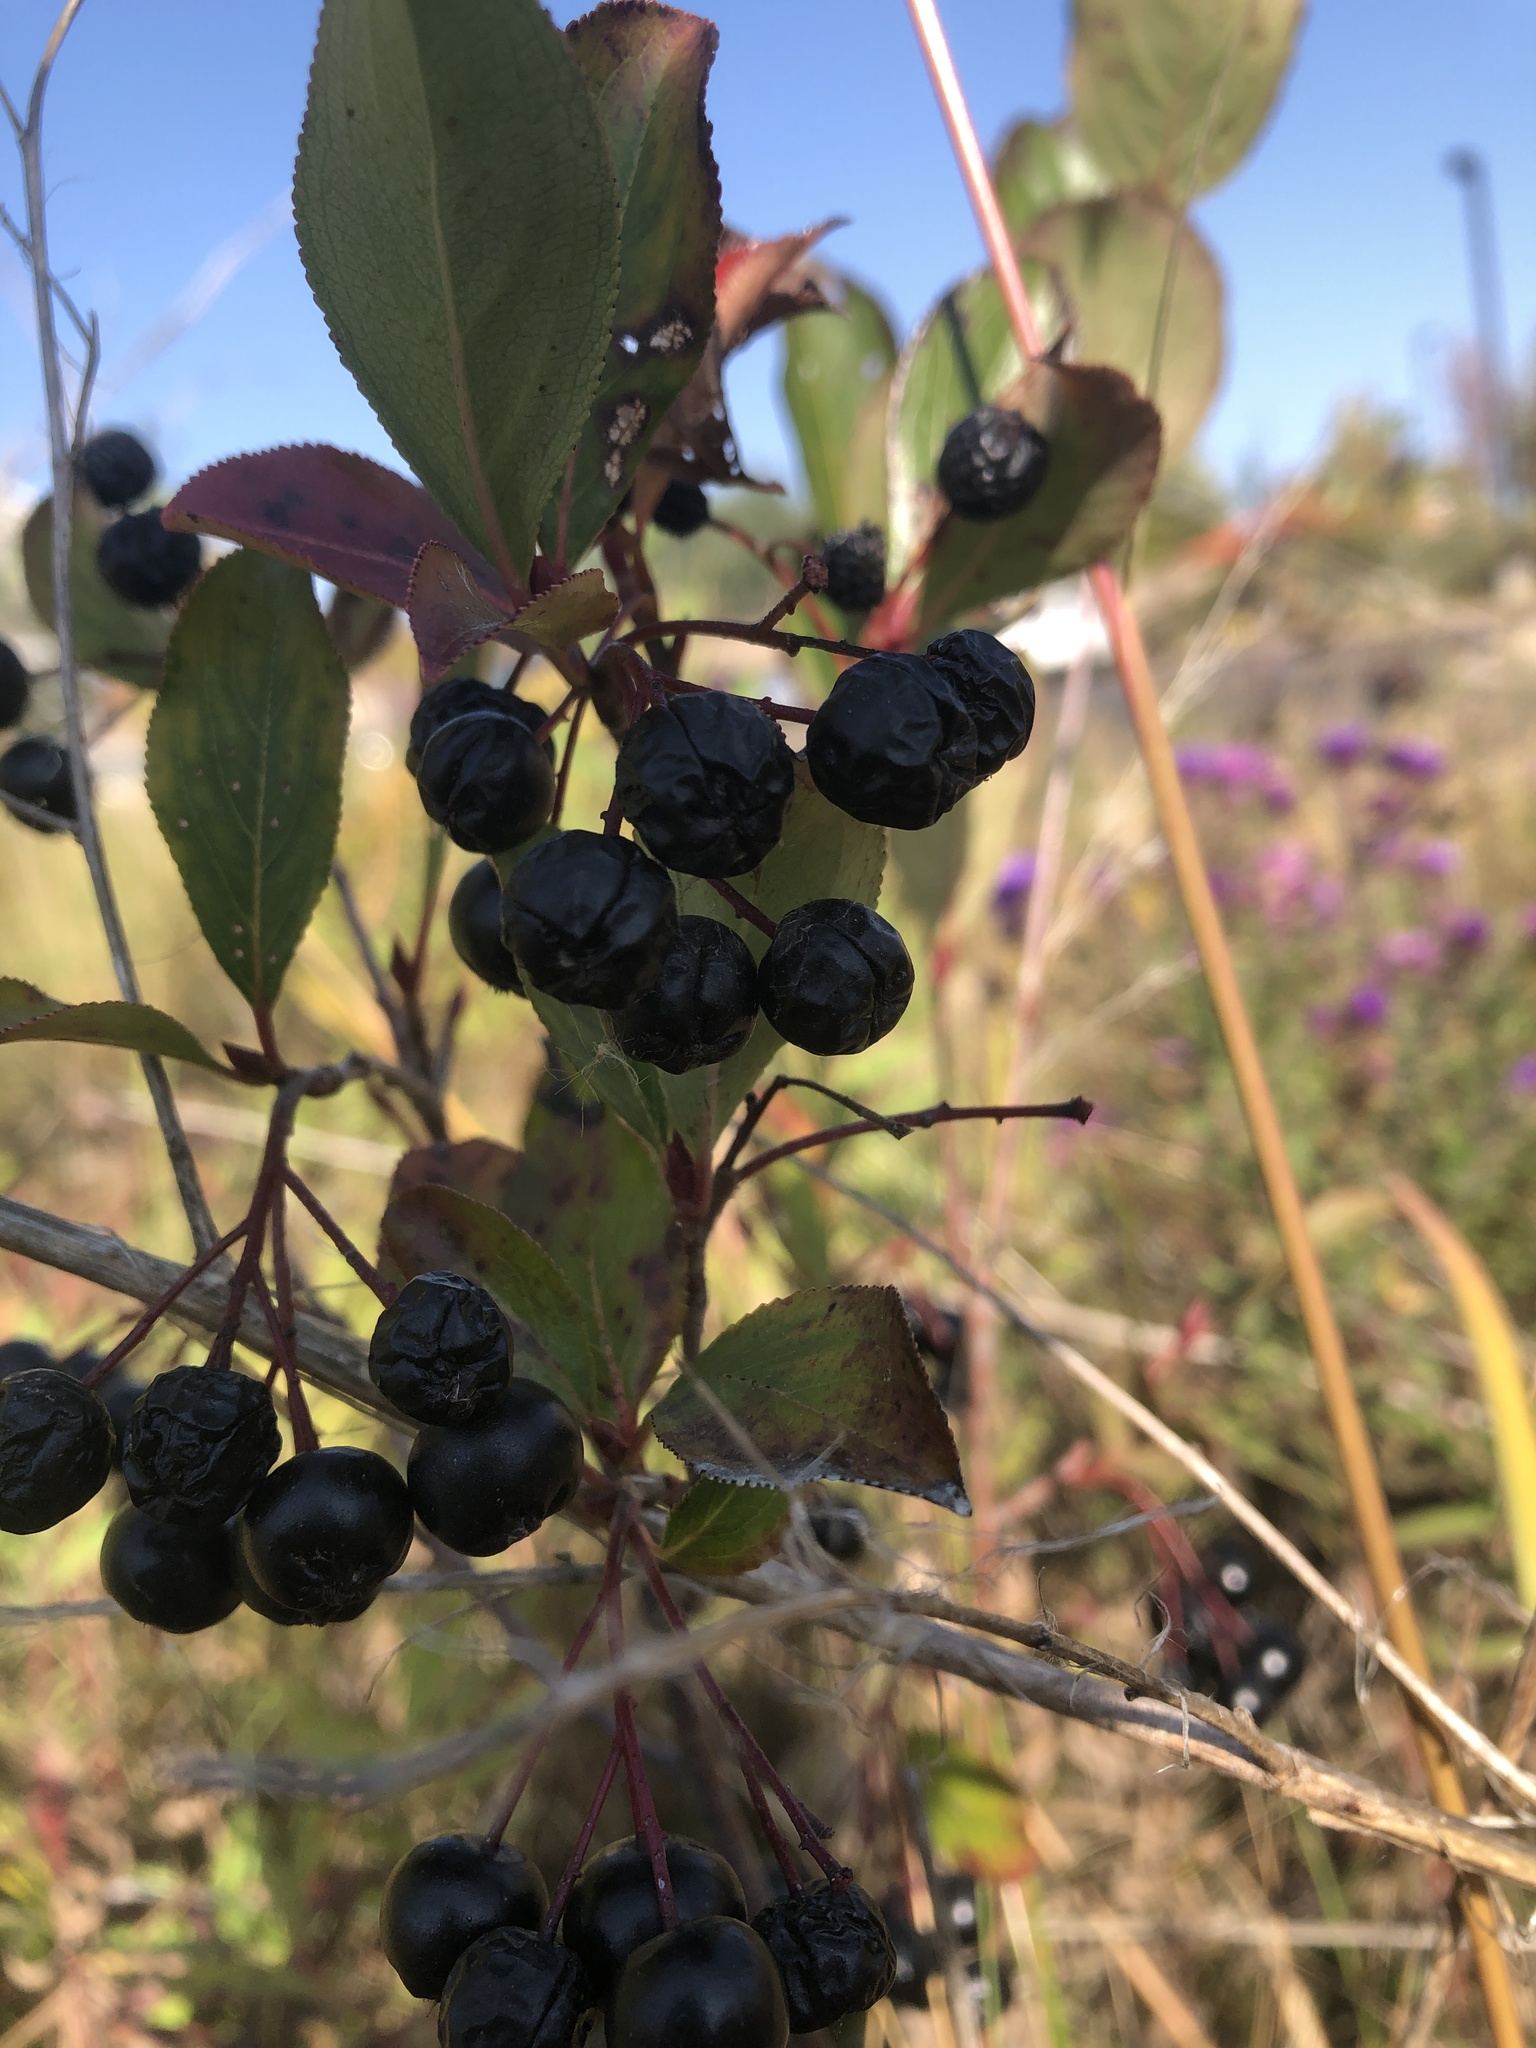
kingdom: Plantae
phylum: Tracheophyta
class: Magnoliopsida
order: Rosales
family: Rosaceae
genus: Aronia
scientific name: Aronia melanocarpa
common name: Black chokeberry
